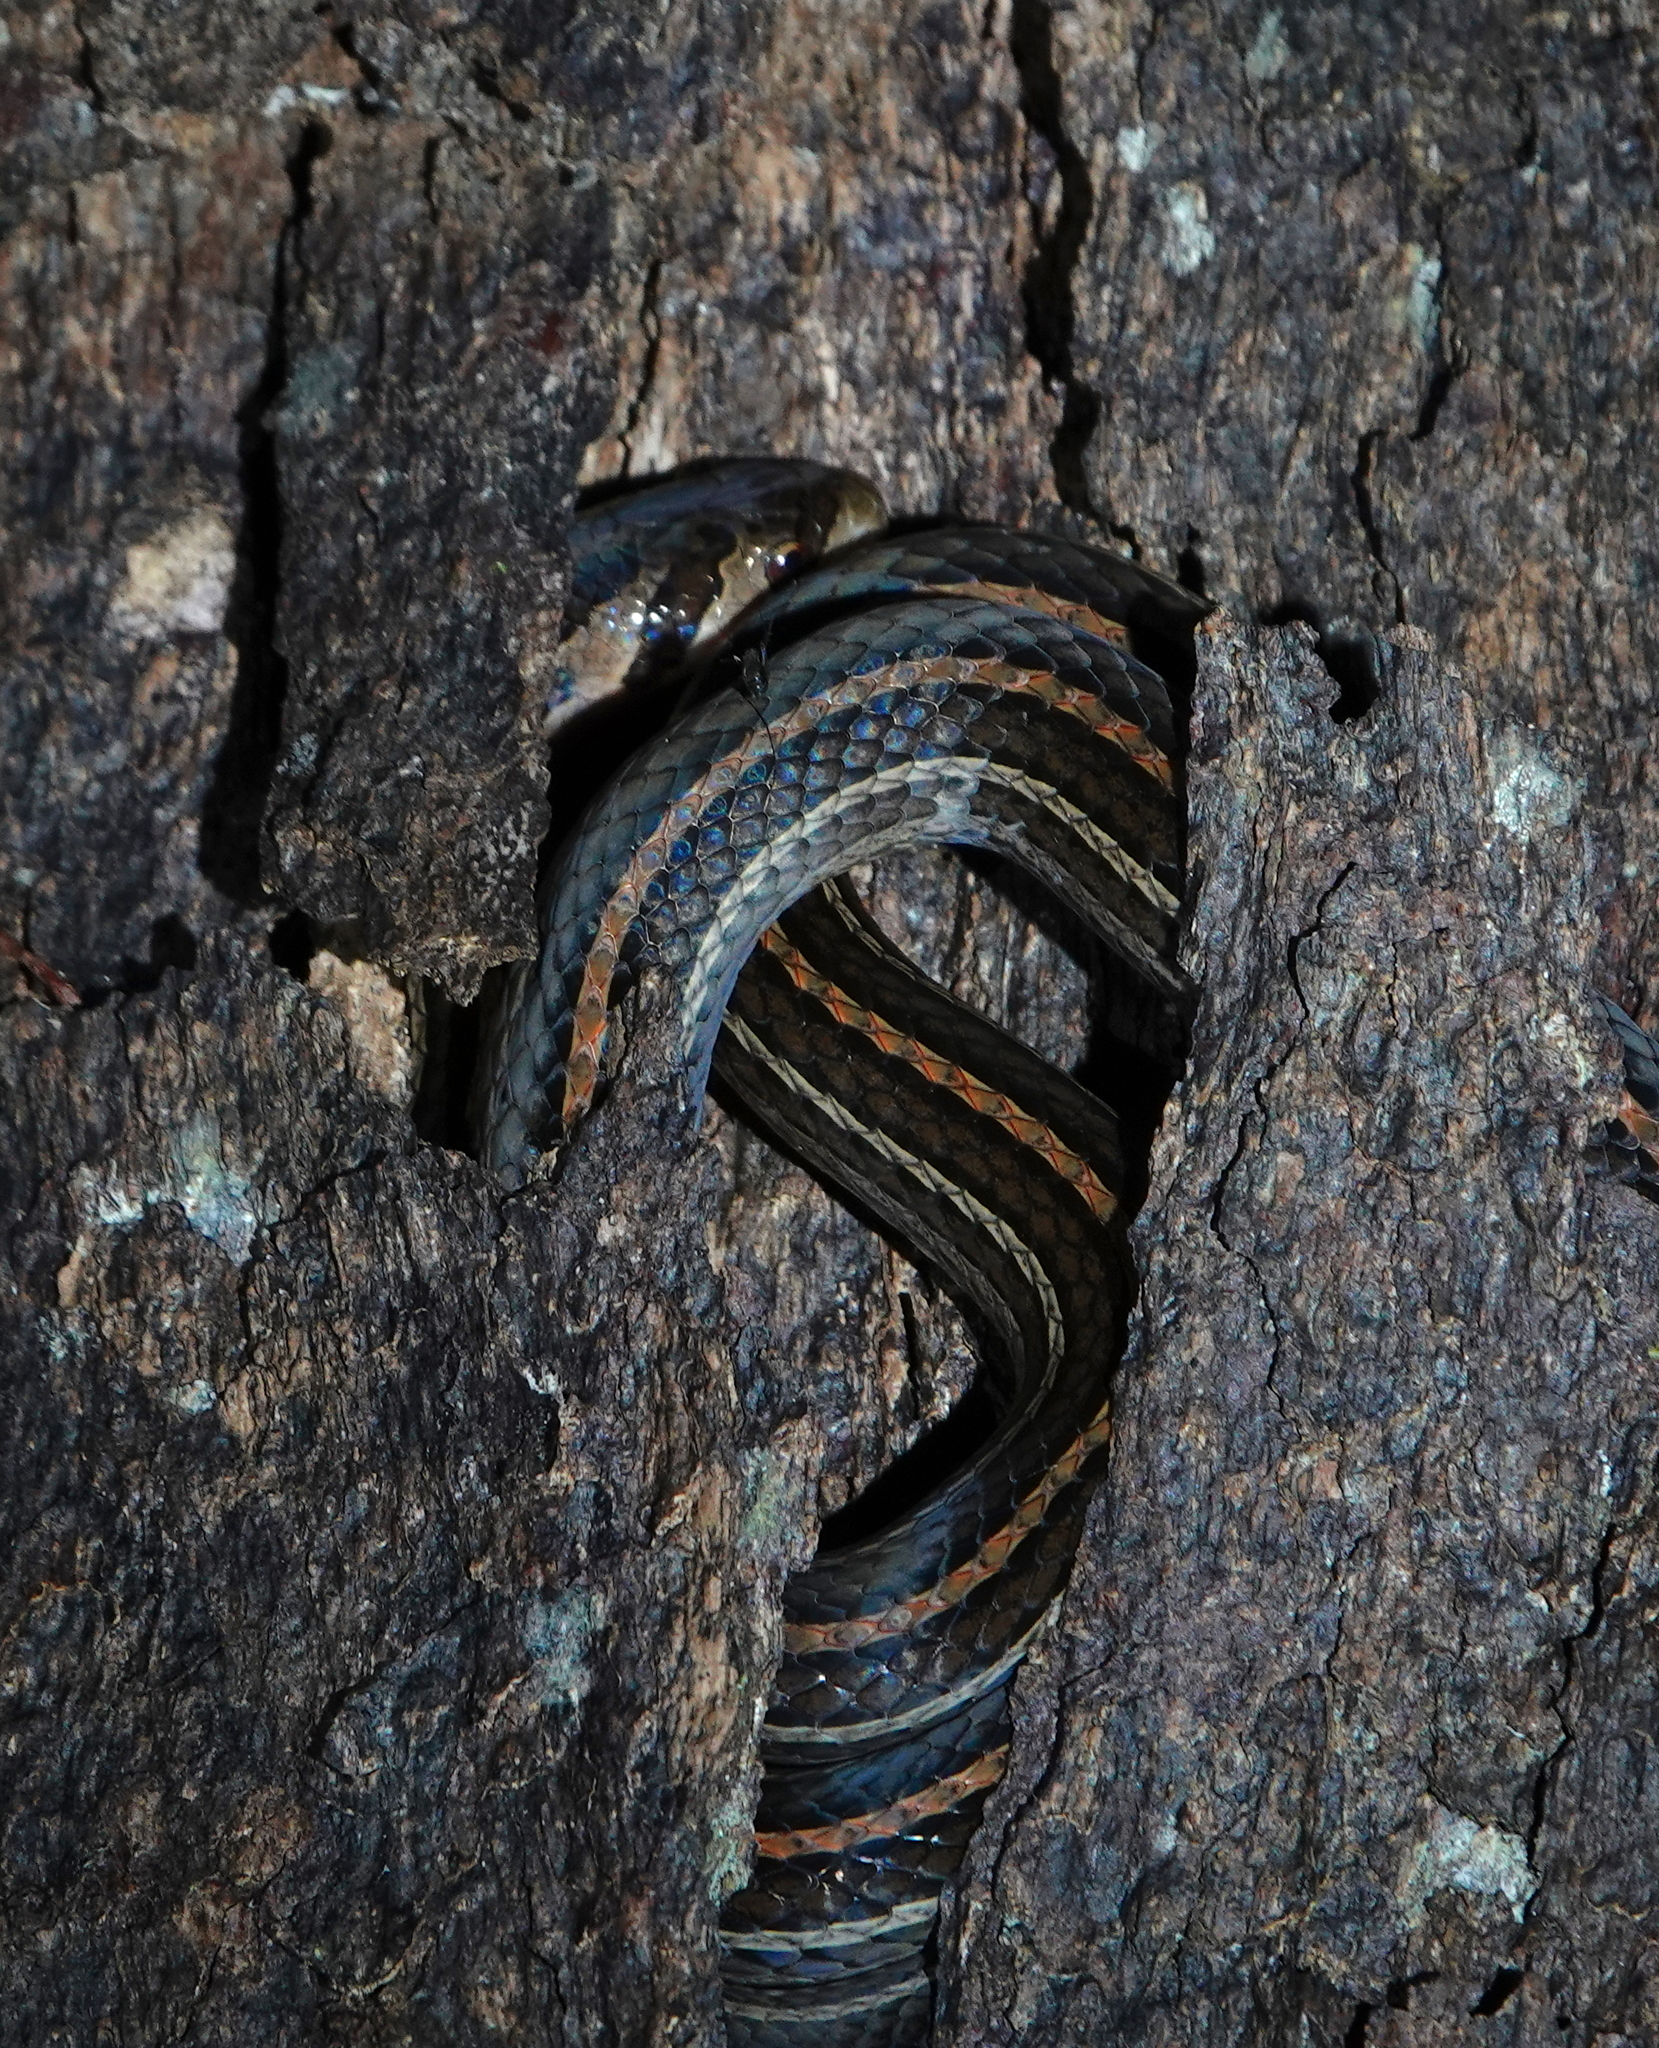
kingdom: Animalia
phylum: Chordata
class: Squamata
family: Colubridae
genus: Oligodon
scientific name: Oligodon octolineatus
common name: Eight-striped kukri snake
